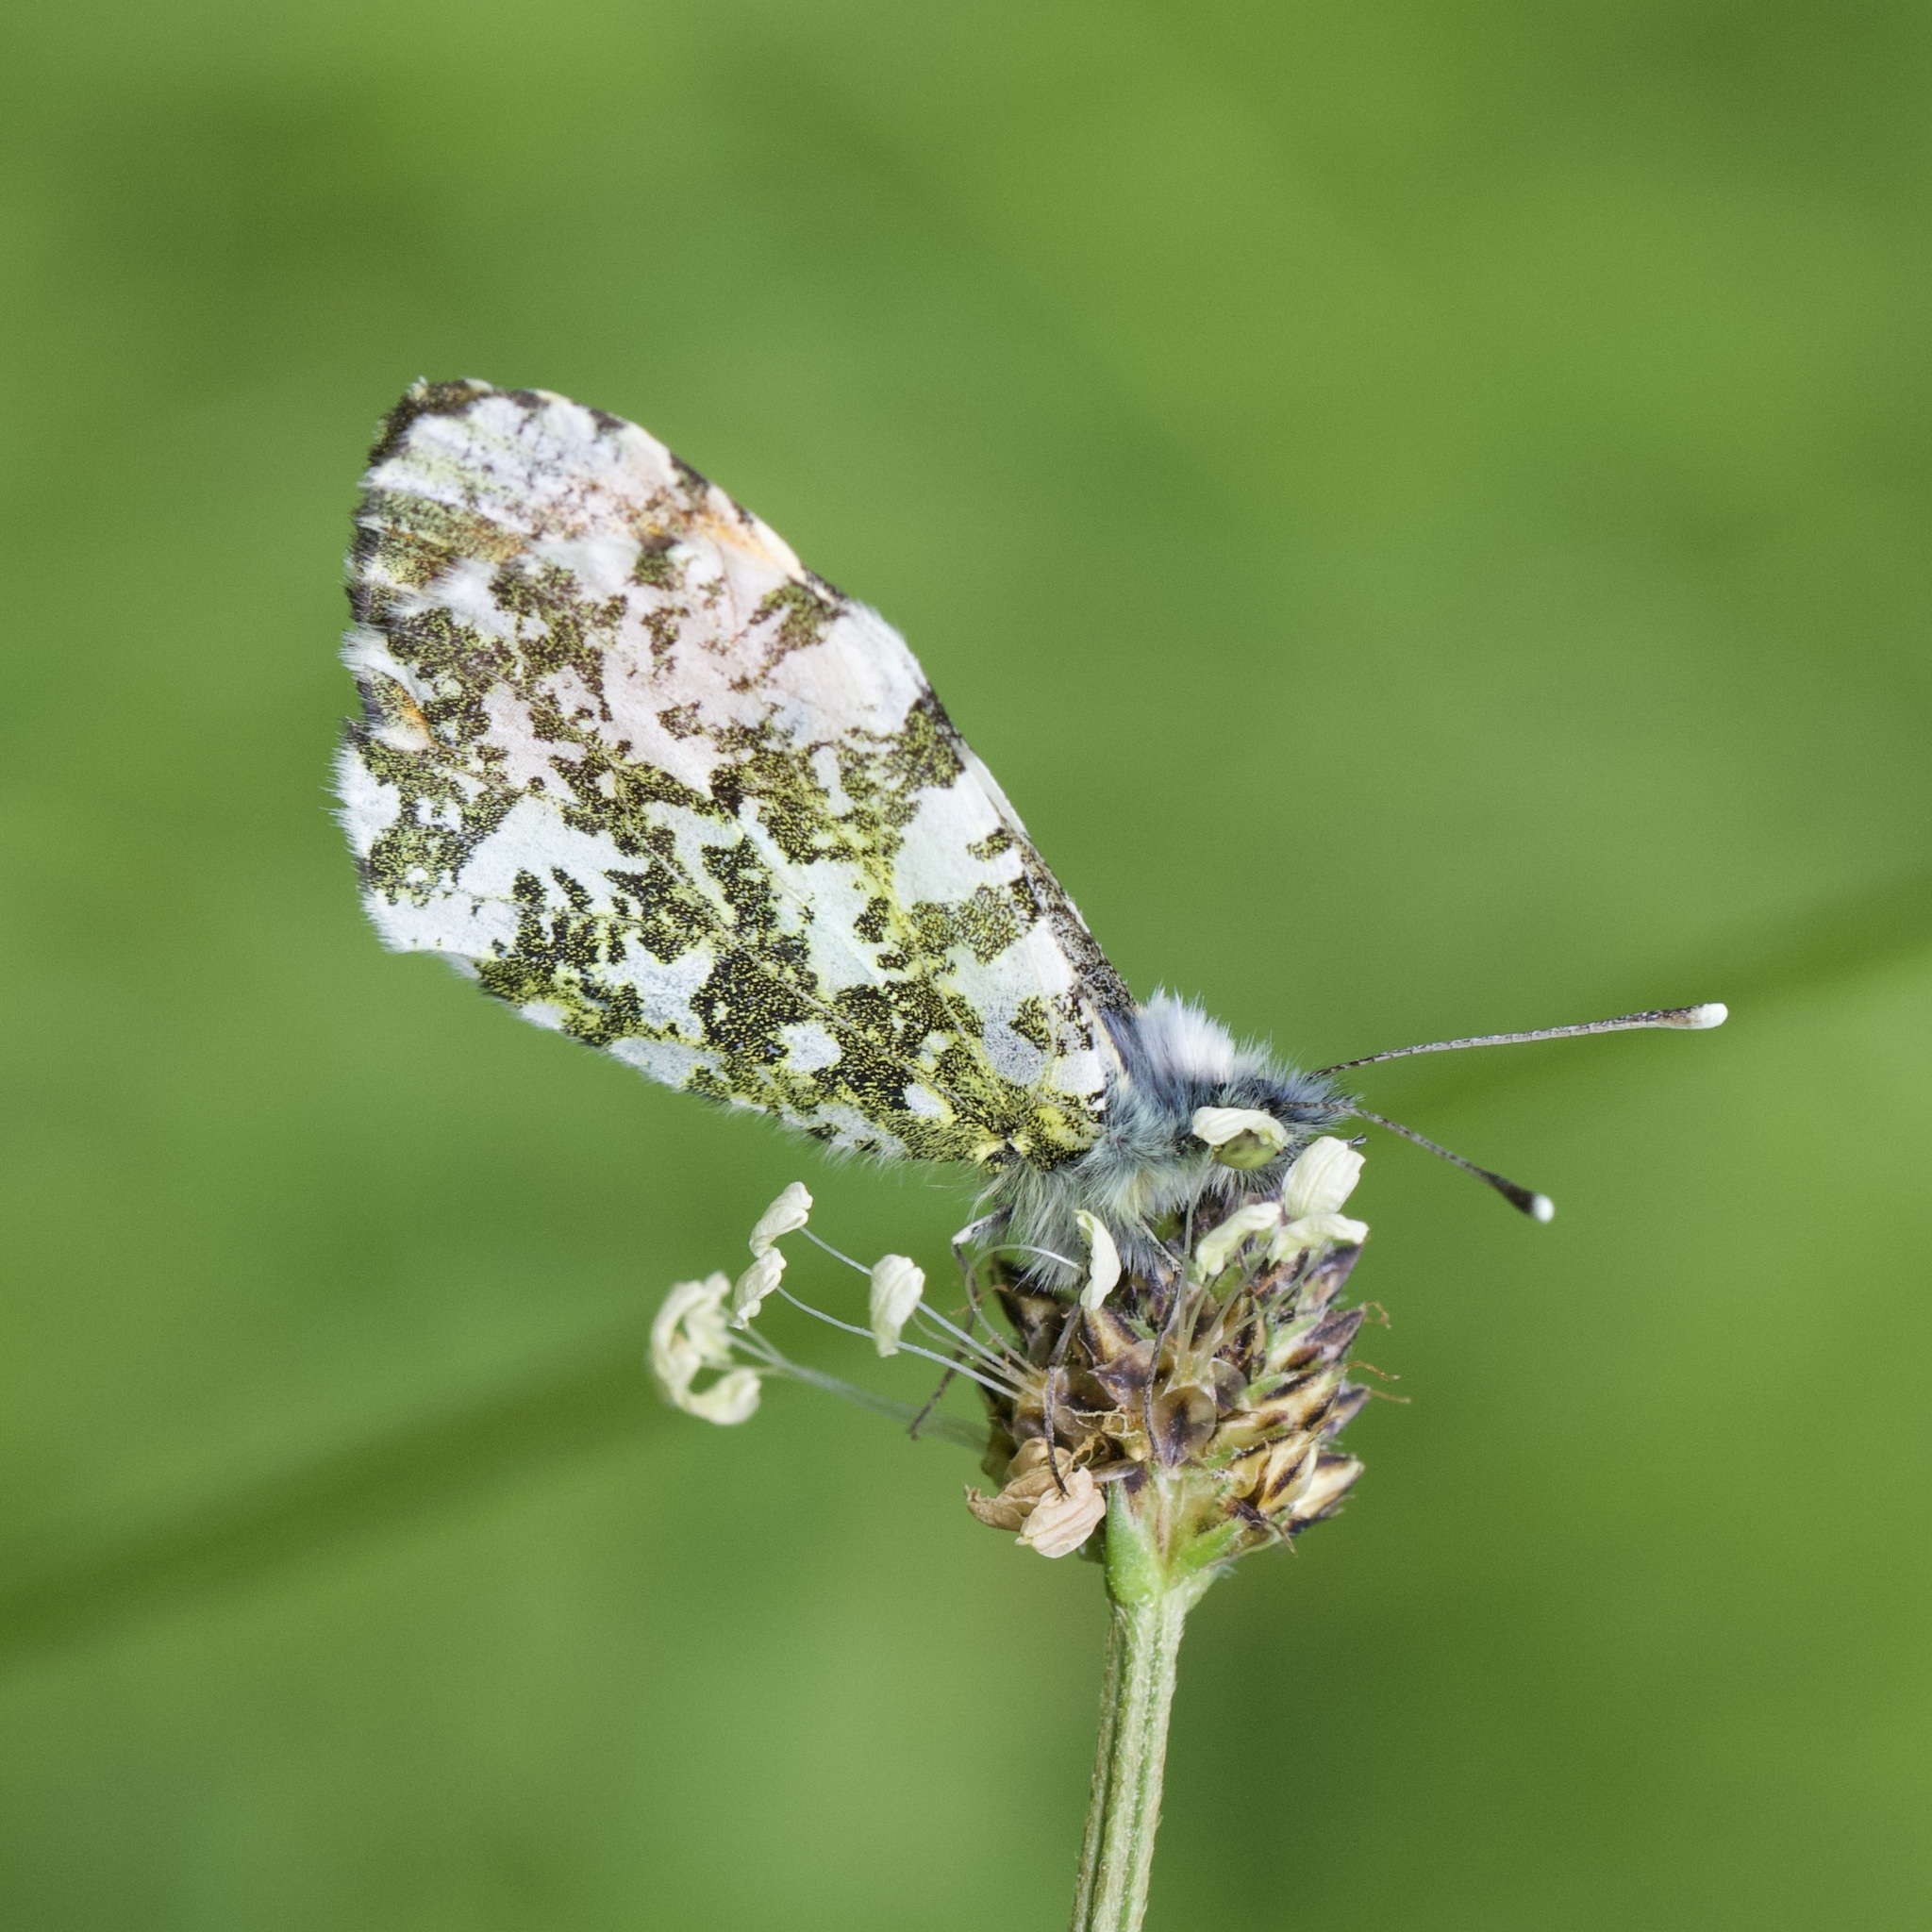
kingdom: Animalia
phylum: Arthropoda
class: Insecta
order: Lepidoptera
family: Pieridae
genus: Anthocharis
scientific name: Anthocharis cardamines
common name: Orange-tip
